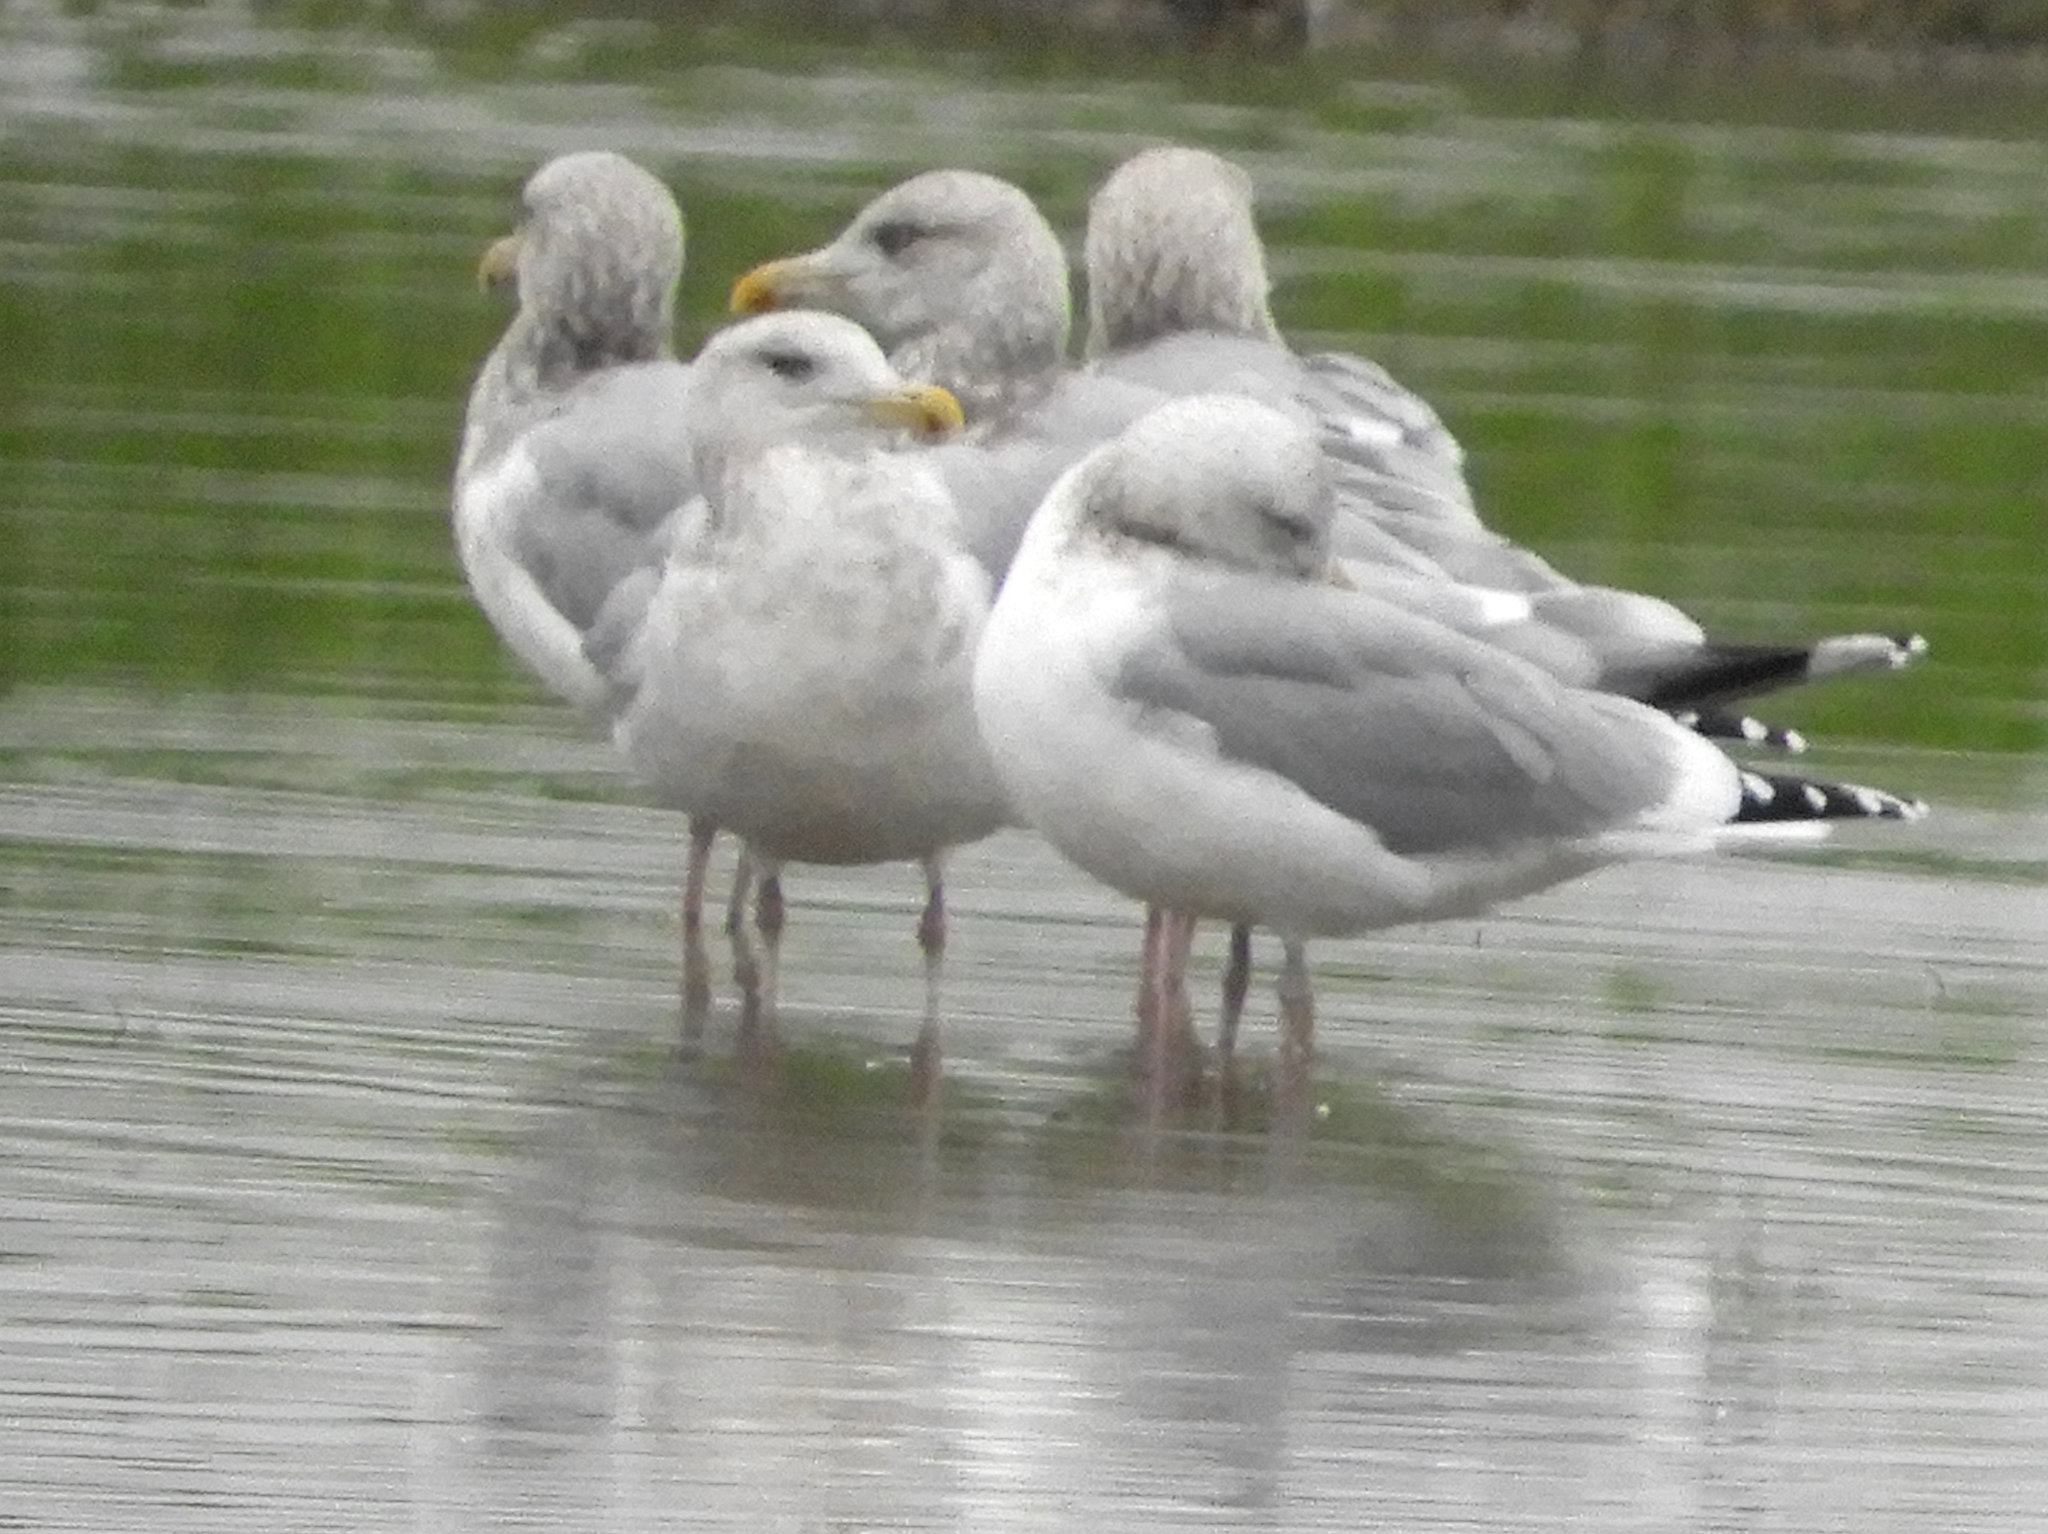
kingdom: Animalia
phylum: Chordata
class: Aves
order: Charadriiformes
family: Laridae
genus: Larus
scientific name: Larus argentatus
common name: Herring gull
